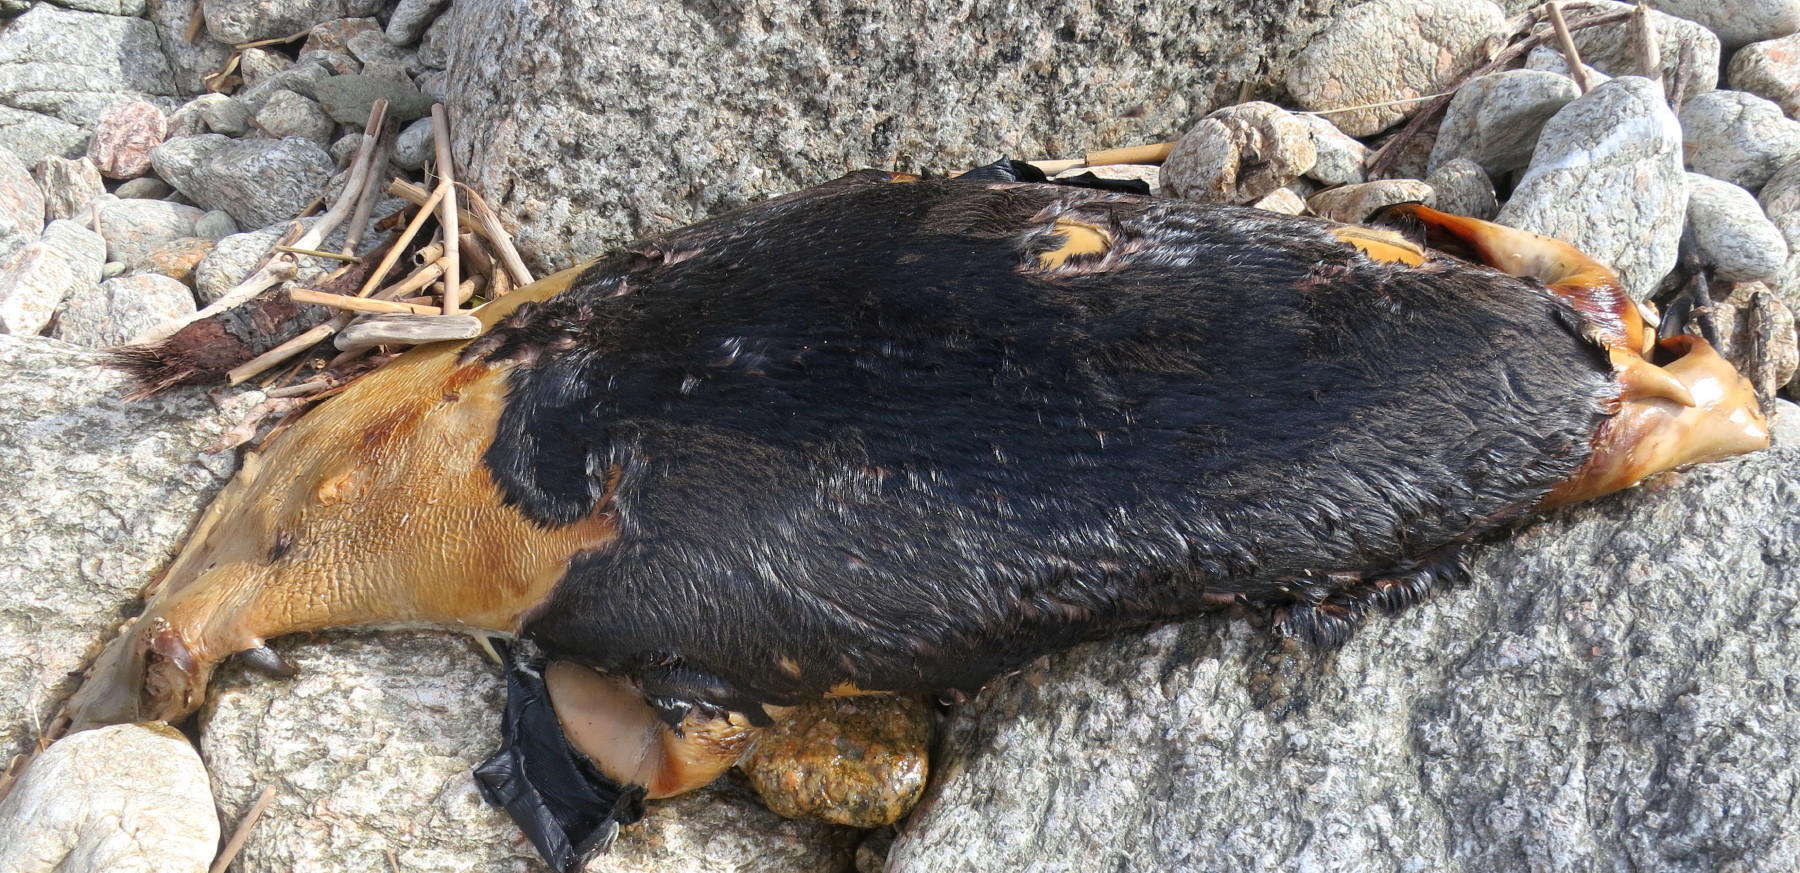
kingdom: Animalia
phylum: Chordata
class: Mammalia
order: Carnivora
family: Otariidae
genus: Arctocephalus
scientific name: Arctocephalus pusillus
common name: Brown fur seal
